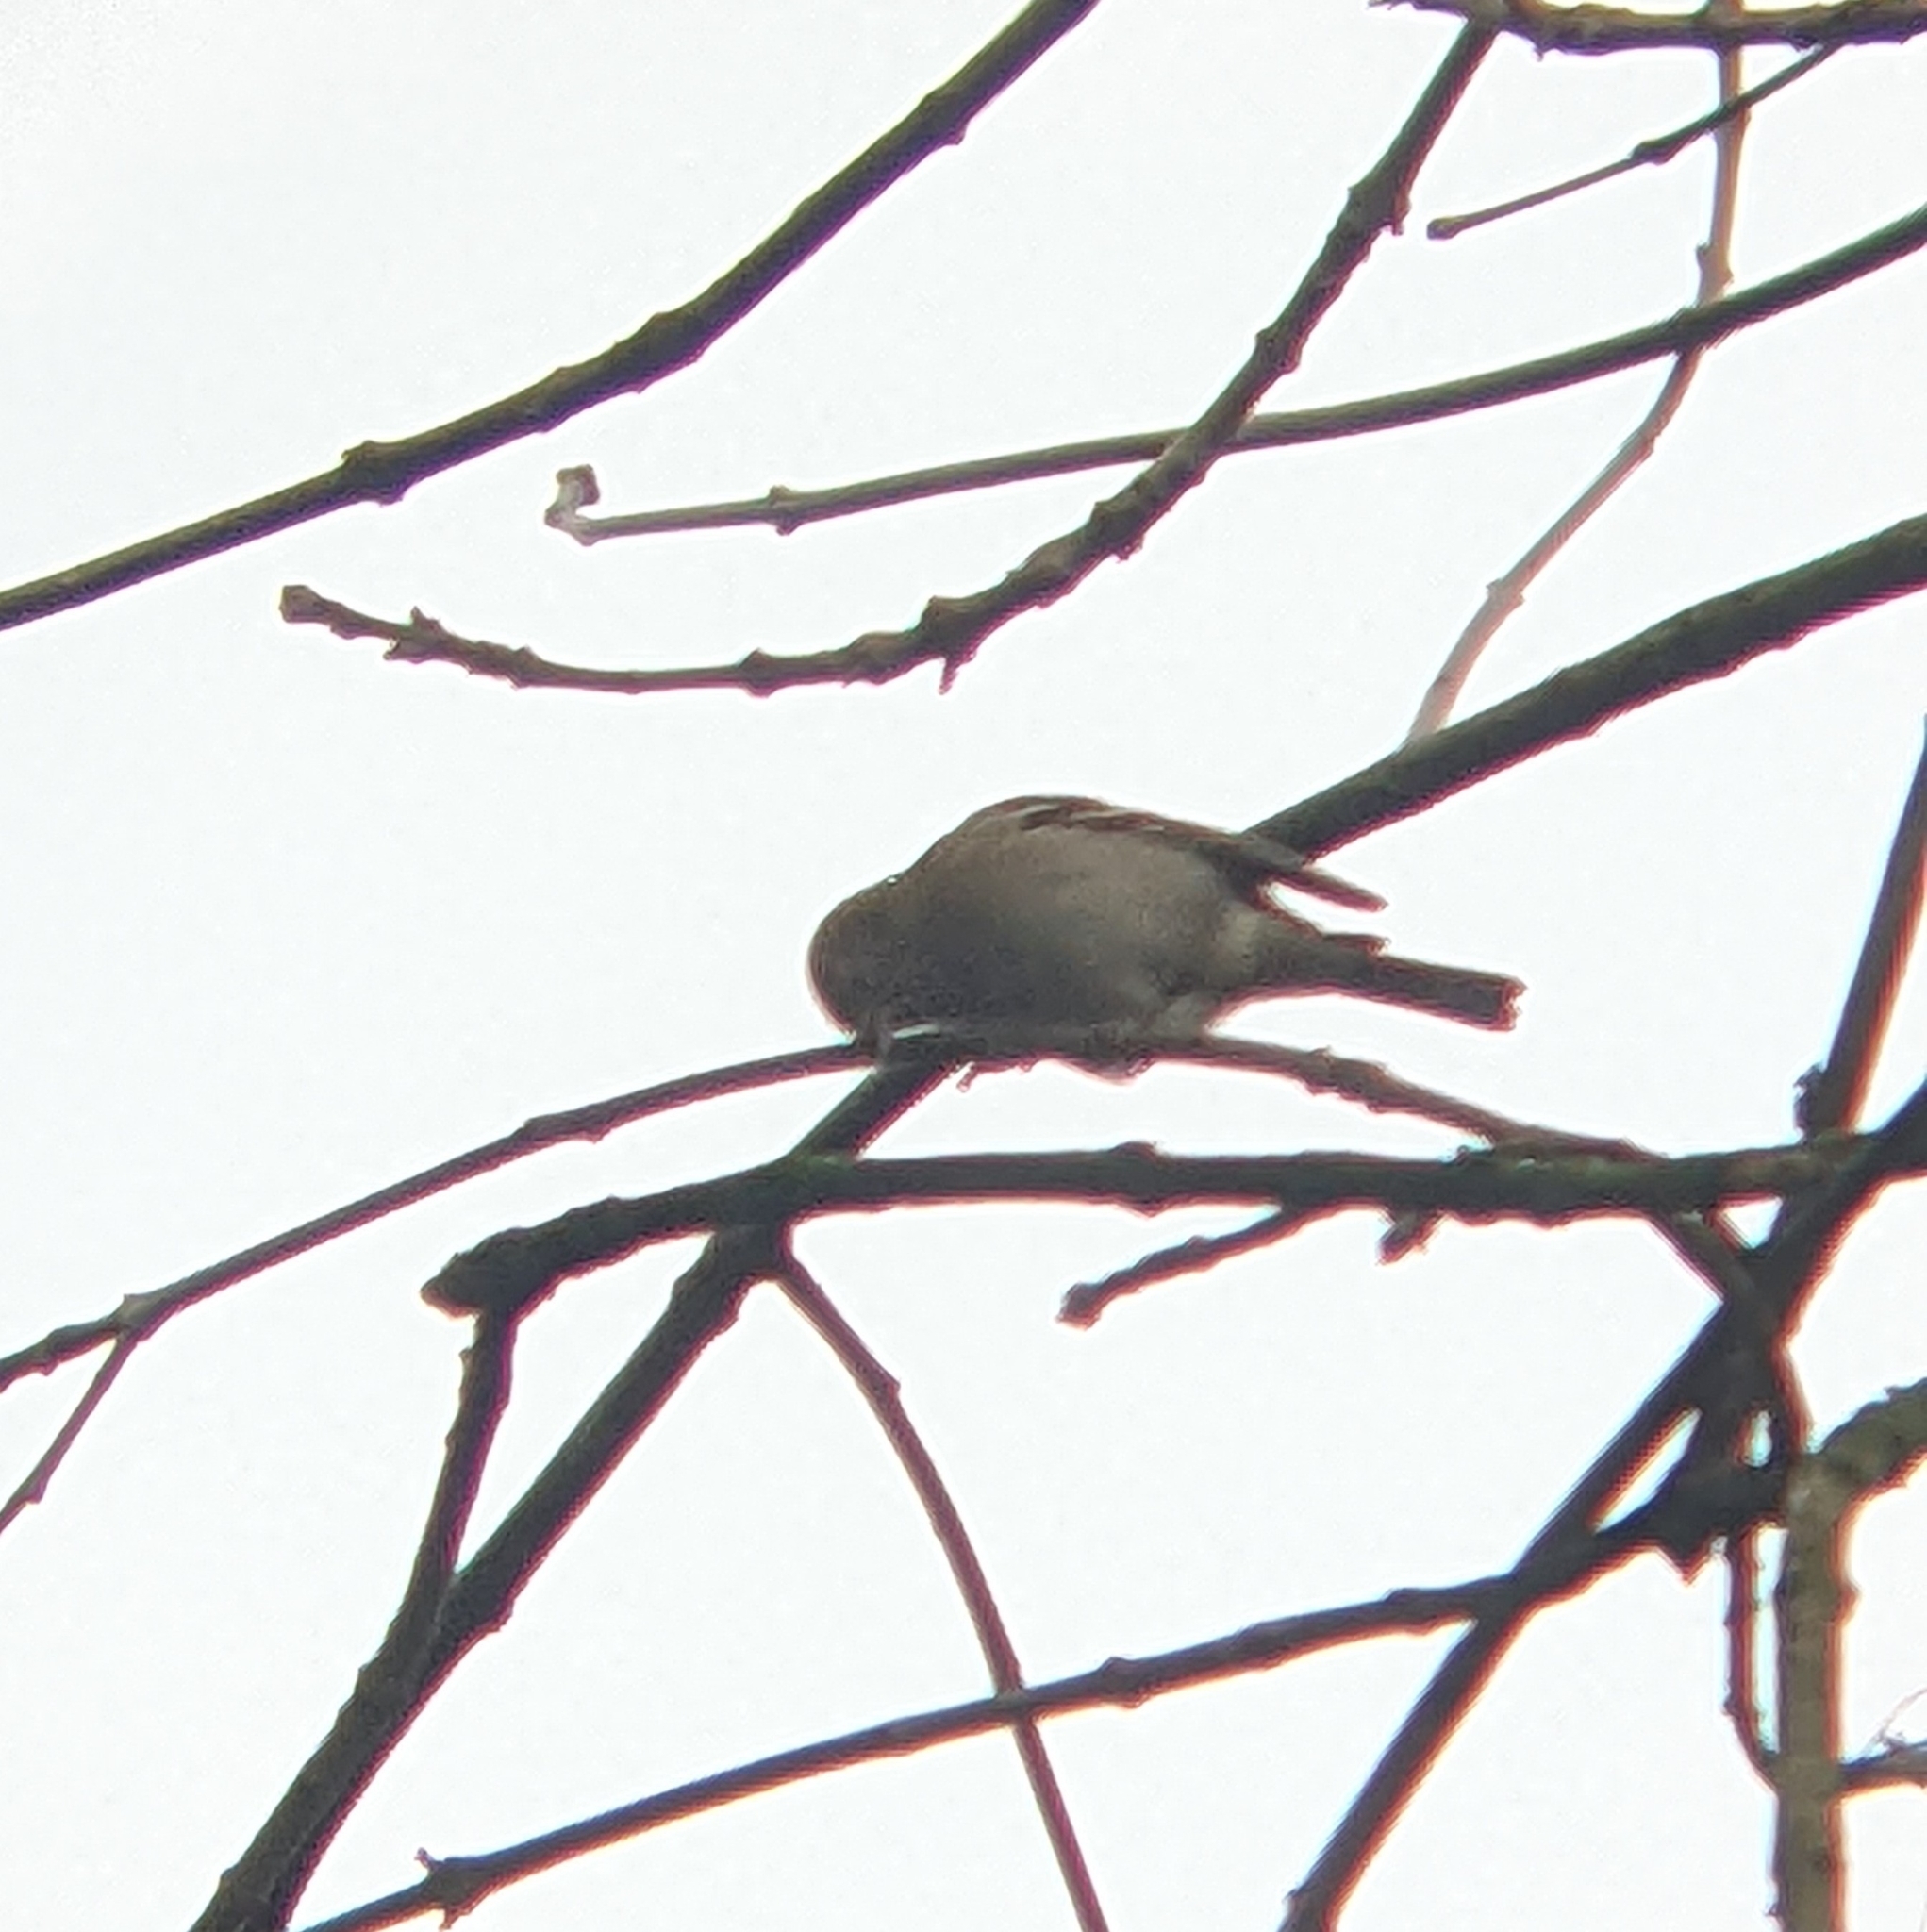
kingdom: Animalia
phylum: Chordata
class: Aves
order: Passeriformes
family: Fringillidae
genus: Fringilla
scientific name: Fringilla coelebs
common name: Common chaffinch
